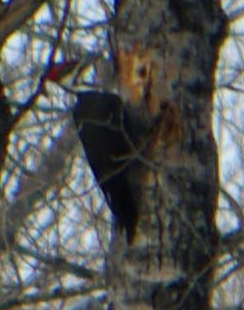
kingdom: Animalia
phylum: Chordata
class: Aves
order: Piciformes
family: Picidae
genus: Dryocopus
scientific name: Dryocopus pileatus
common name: Pileated woodpecker
